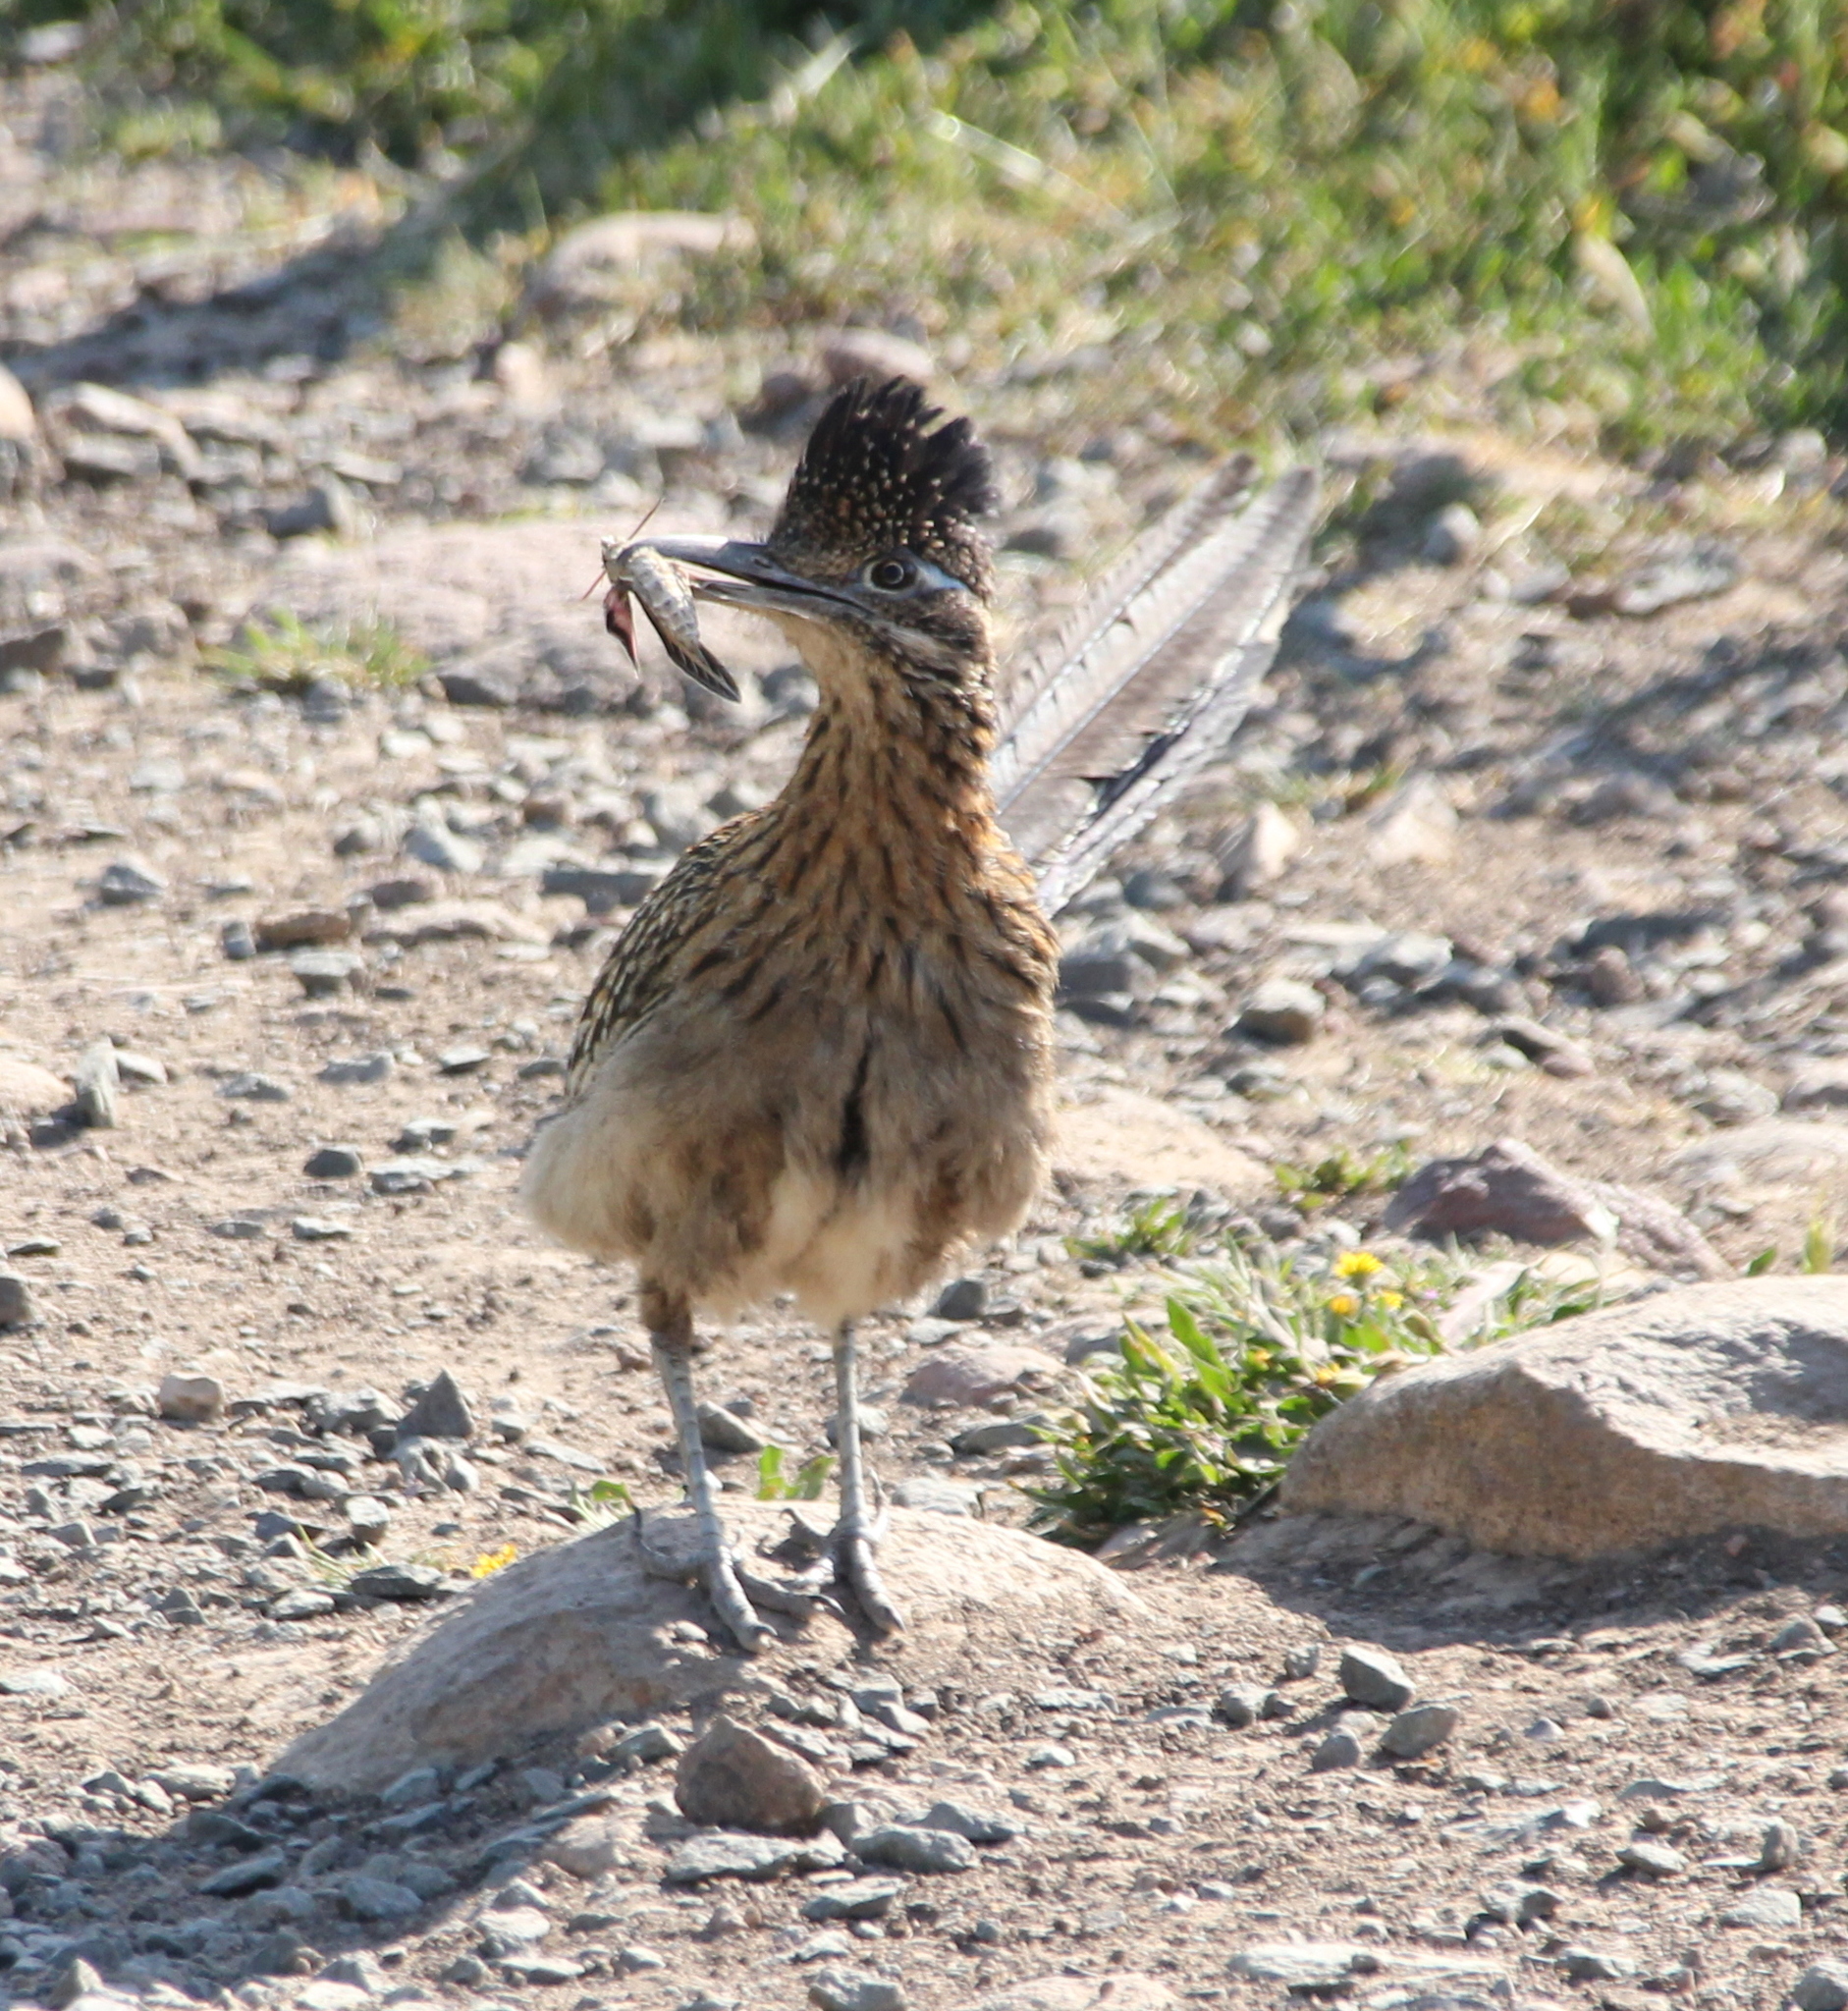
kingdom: Animalia
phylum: Chordata
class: Aves
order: Cuculiformes
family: Cuculidae
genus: Geococcyx
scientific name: Geococcyx californianus
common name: Greater roadrunner
